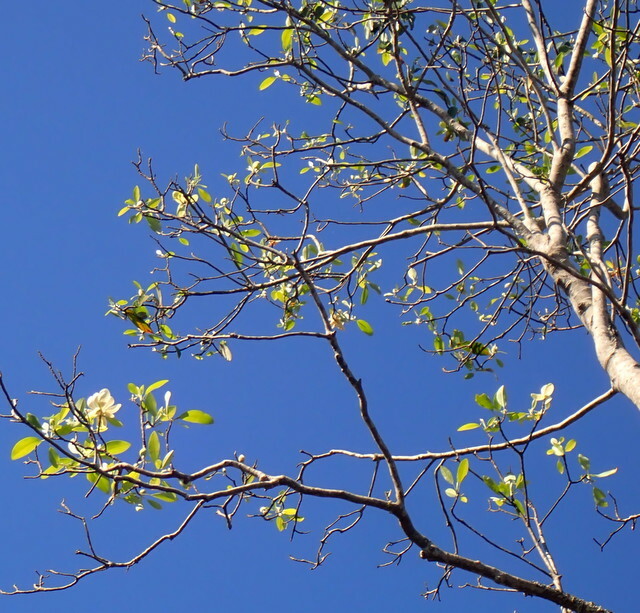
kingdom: Plantae
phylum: Tracheophyta
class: Magnoliopsida
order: Magnoliales
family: Magnoliaceae
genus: Magnolia
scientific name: Magnolia virginiana
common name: Swamp bay
